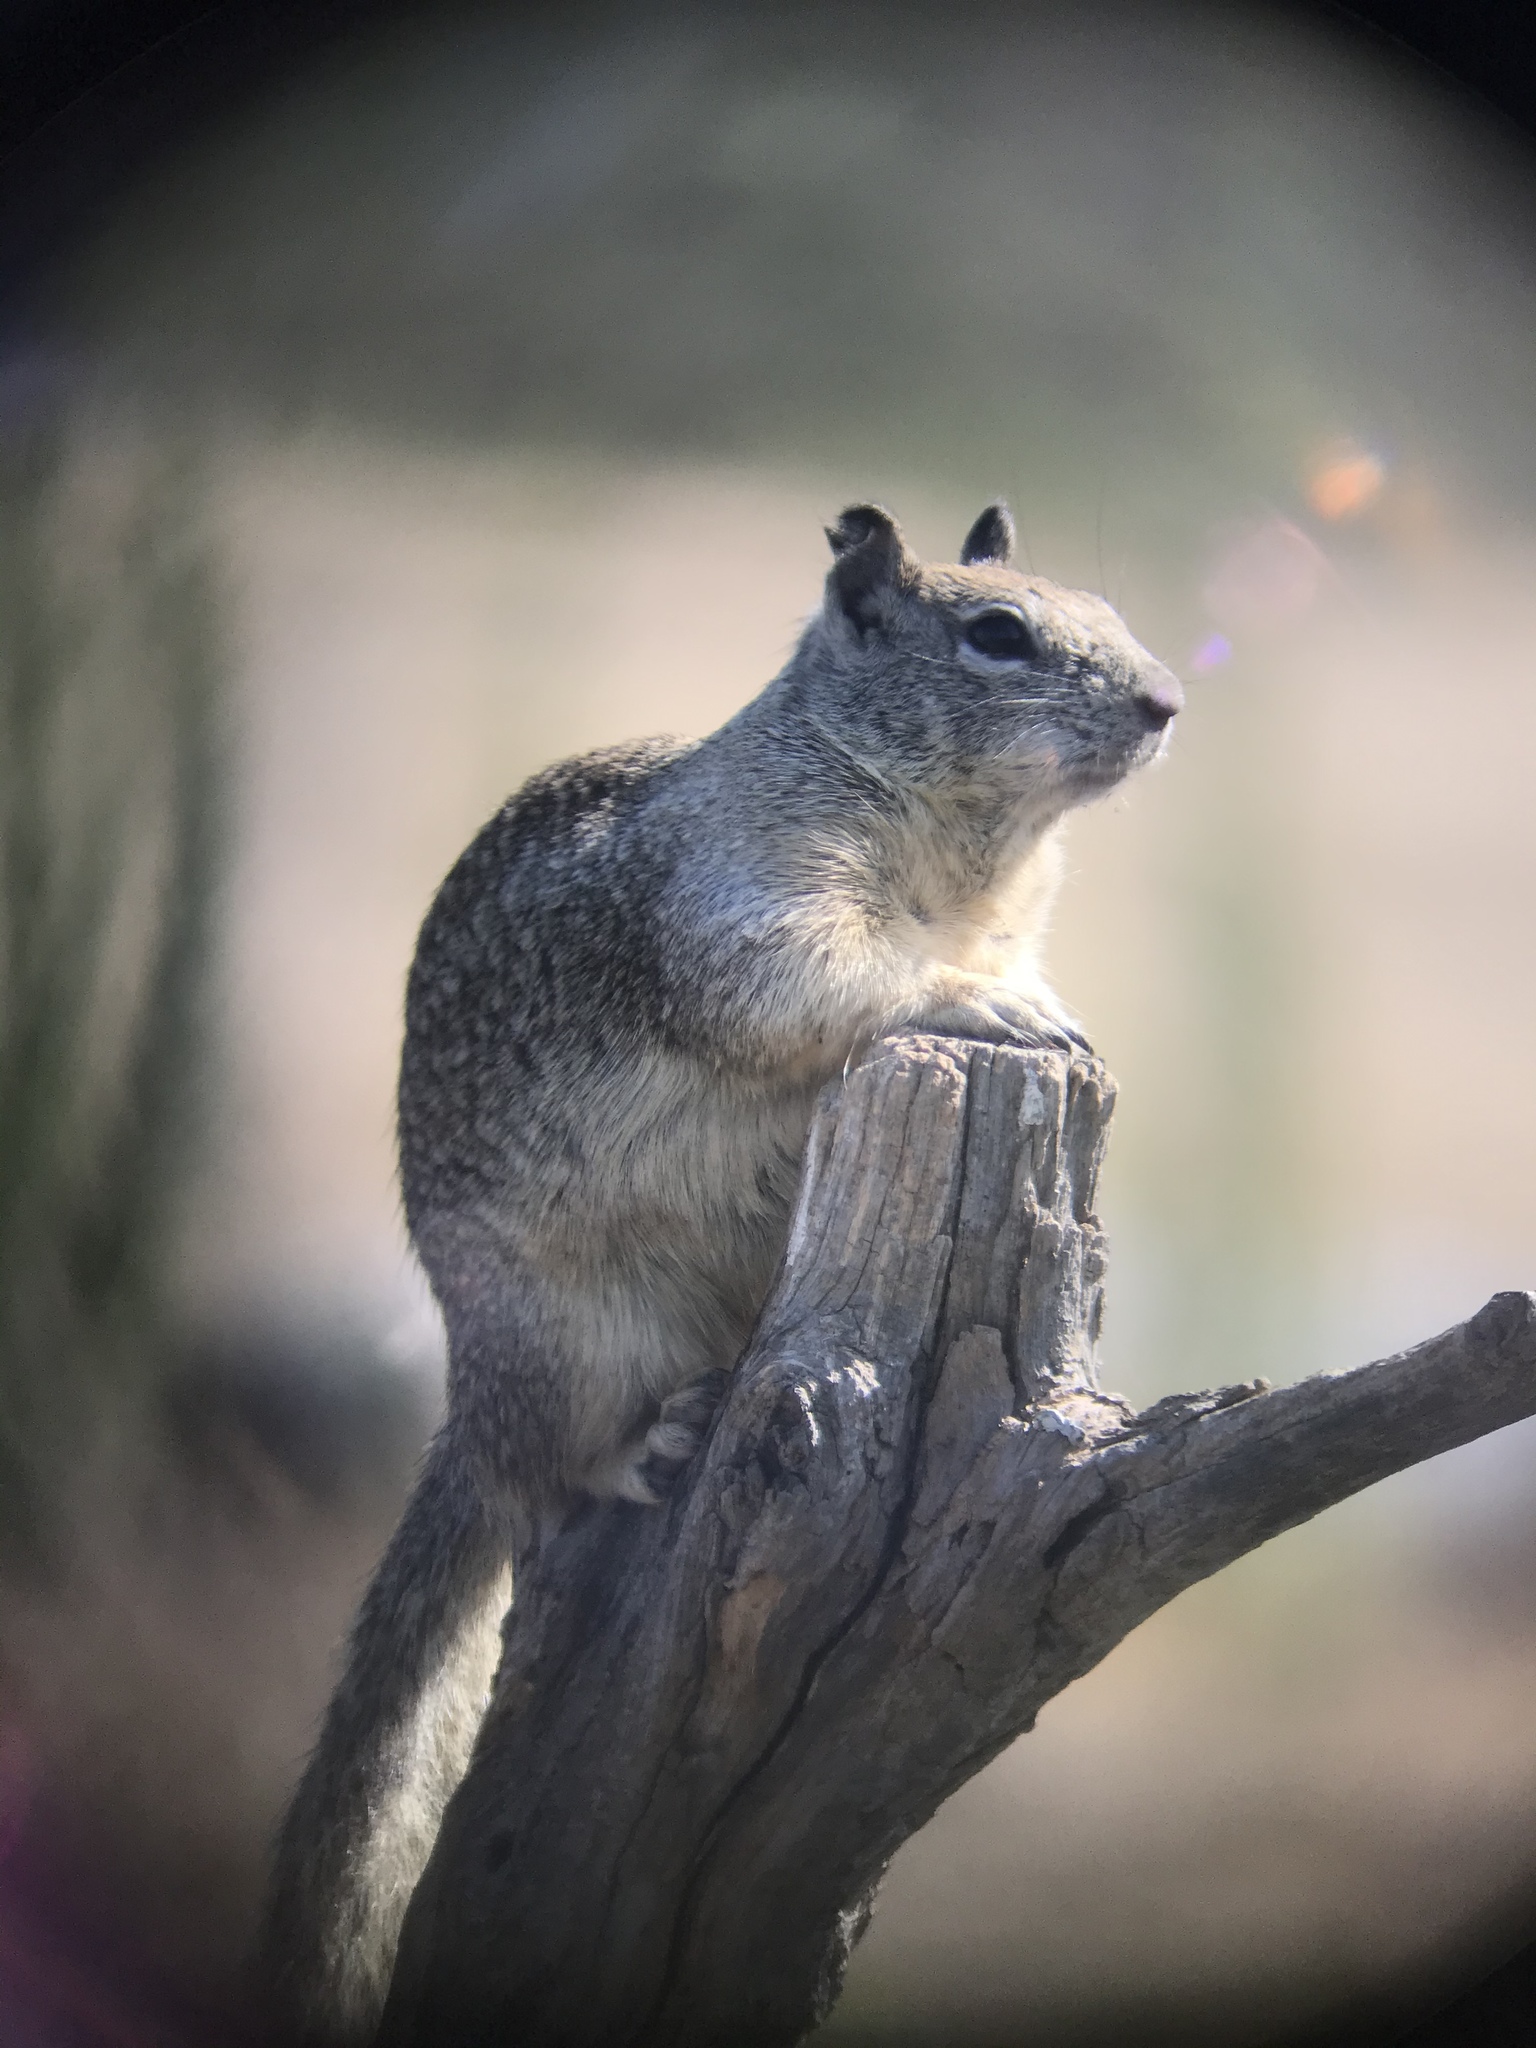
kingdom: Animalia
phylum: Chordata
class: Mammalia
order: Rodentia
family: Sciuridae
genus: Otospermophilus
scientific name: Otospermophilus beecheyi
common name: California ground squirrel
